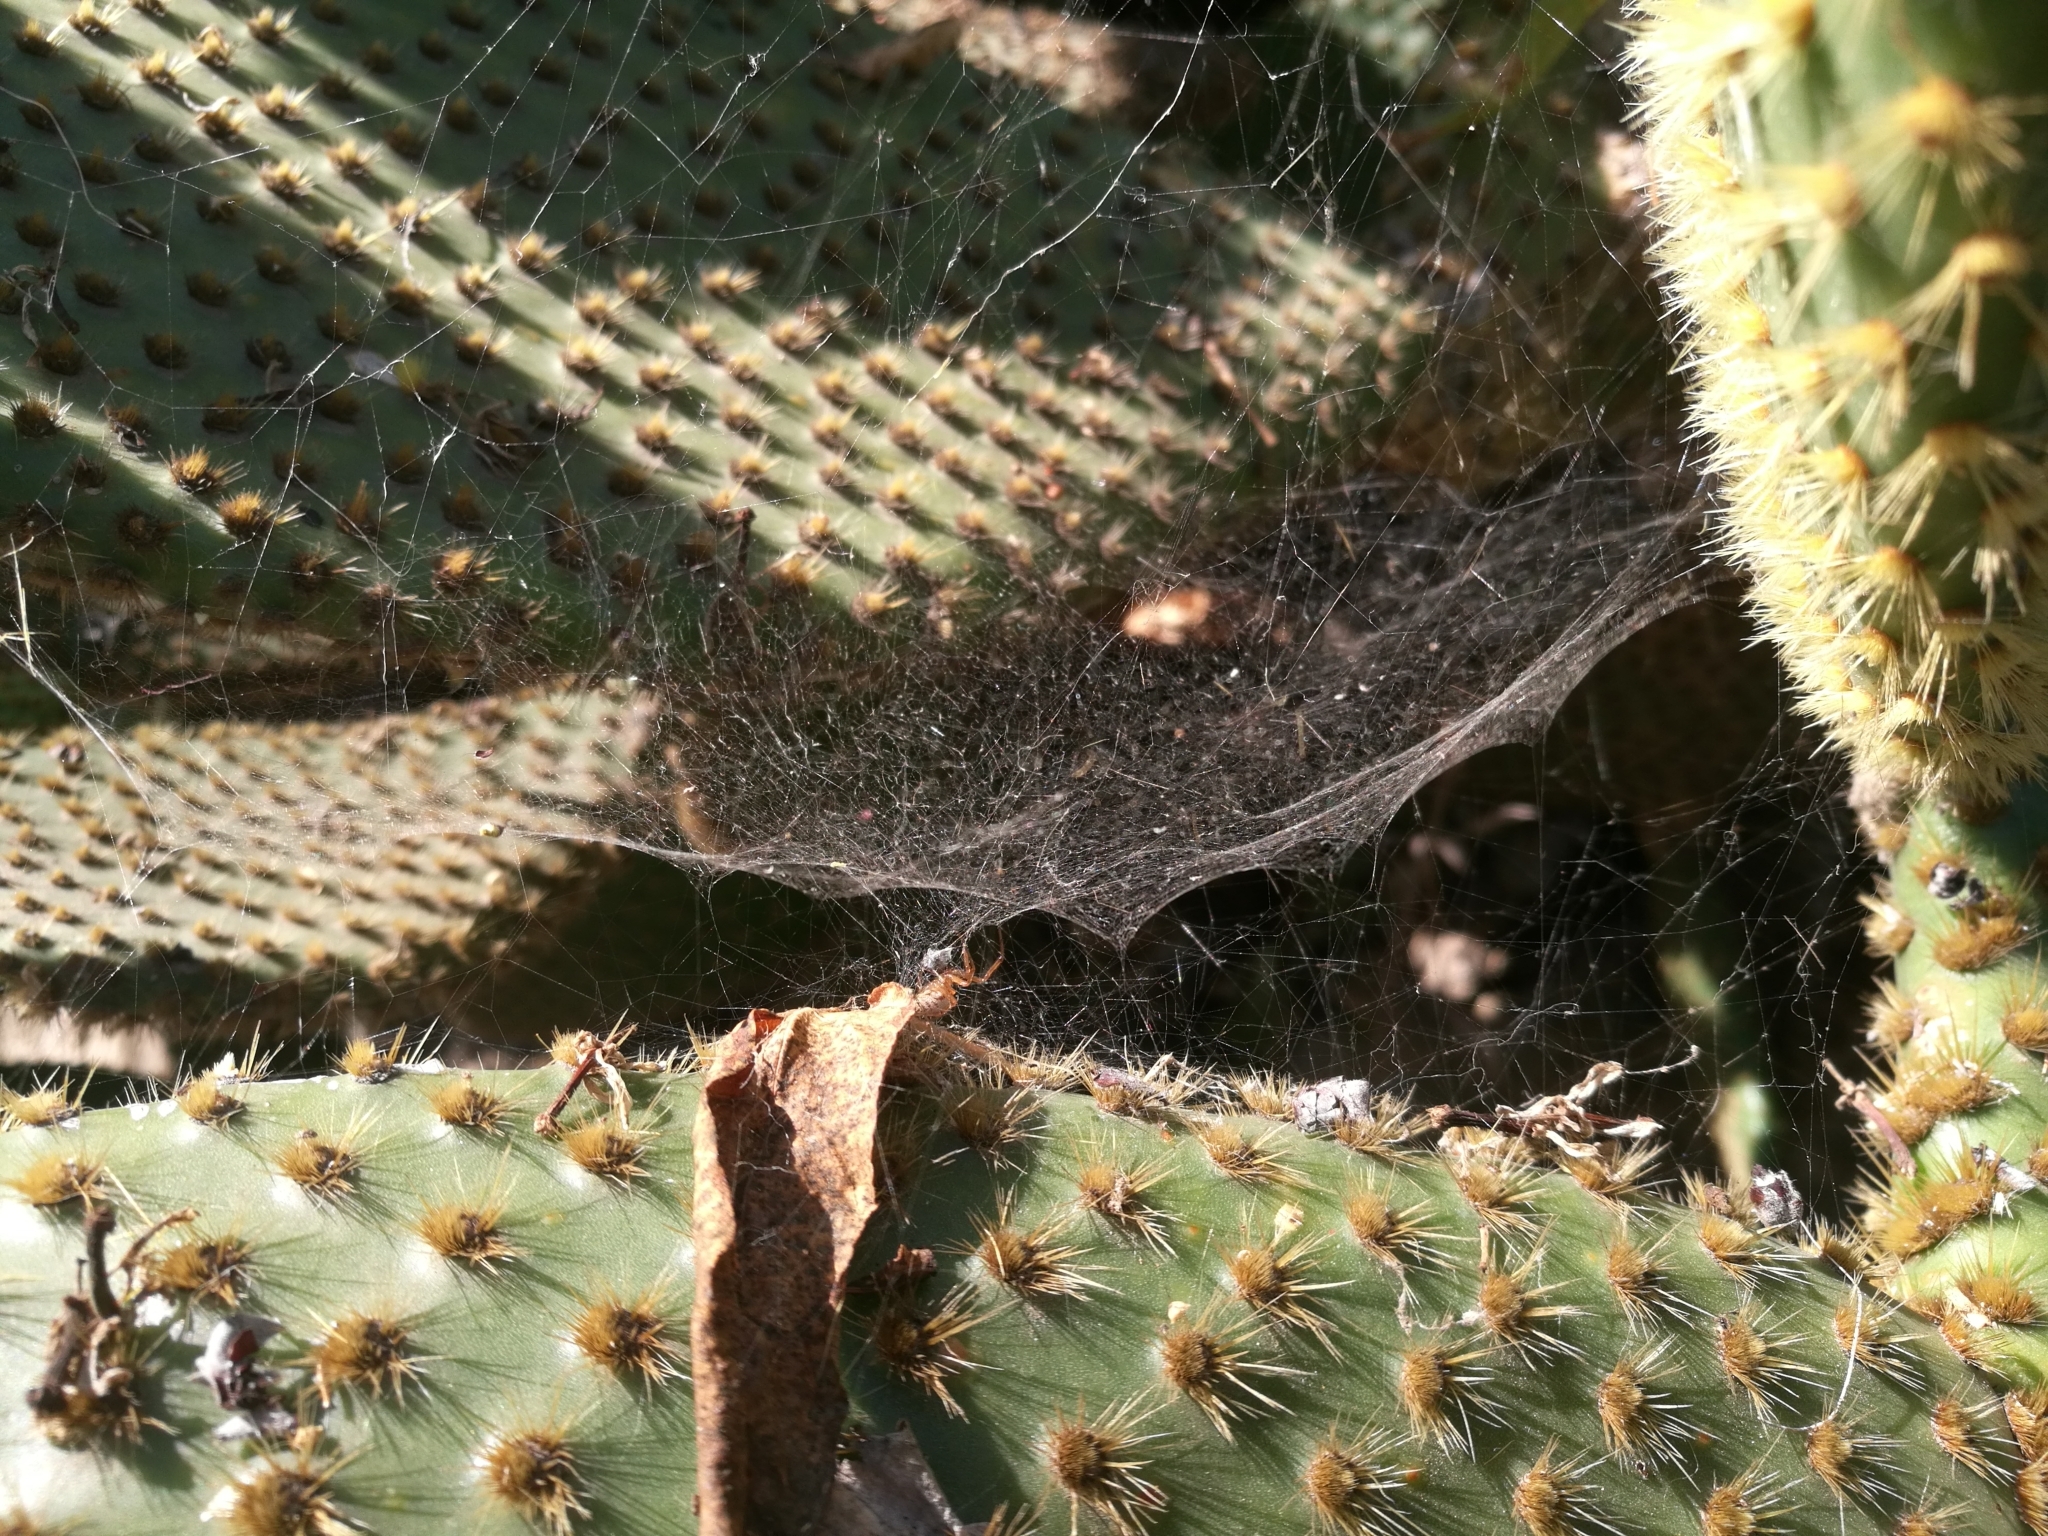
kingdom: Animalia
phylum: Arthropoda
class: Arachnida
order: Araneae
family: Araneidae
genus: Cyrtophora
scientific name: Cyrtophora citricola
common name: Orb weavers
